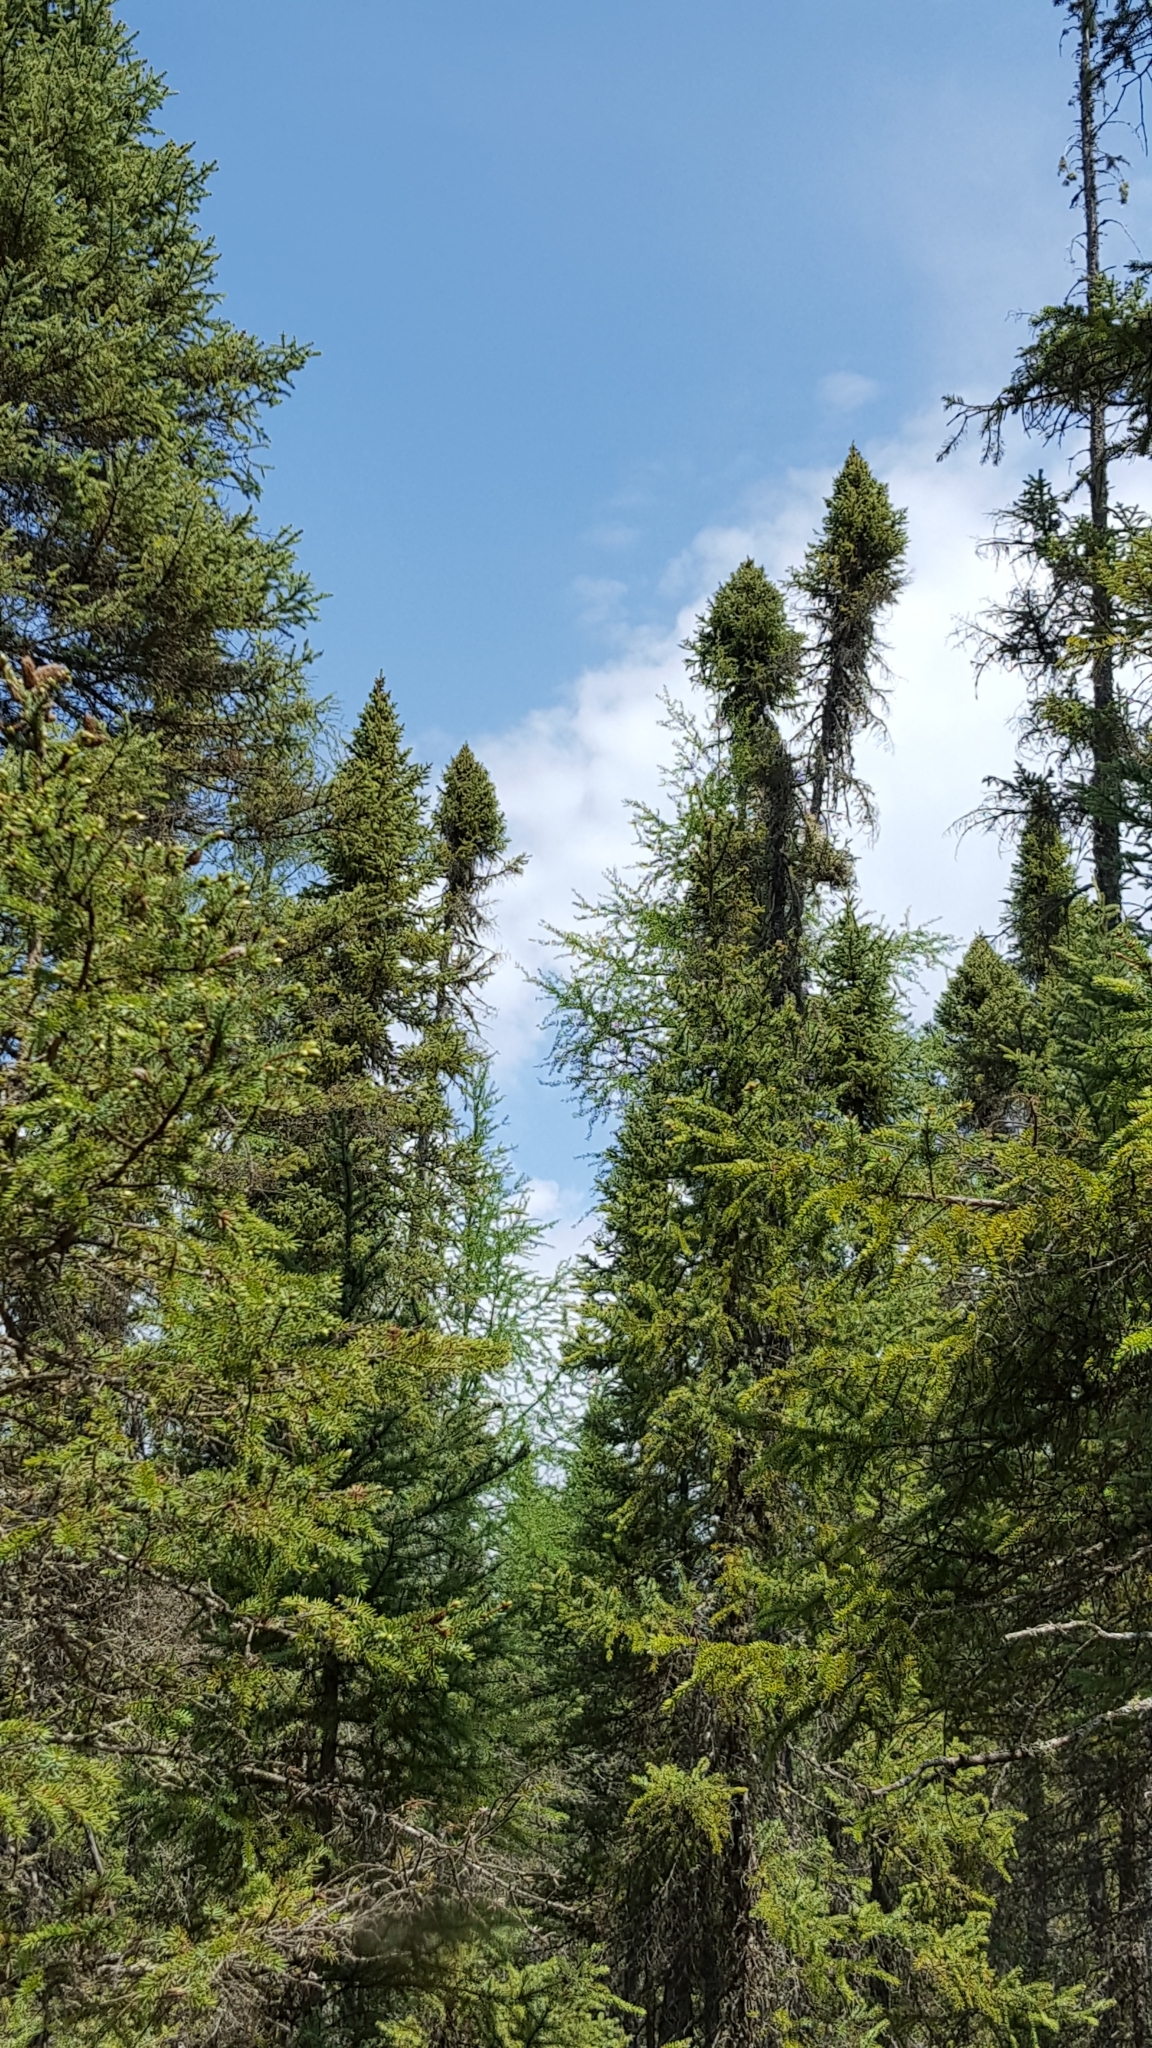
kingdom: Plantae
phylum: Tracheophyta
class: Pinopsida
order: Pinales
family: Pinaceae
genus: Picea
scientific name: Picea mariana
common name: Black spruce
